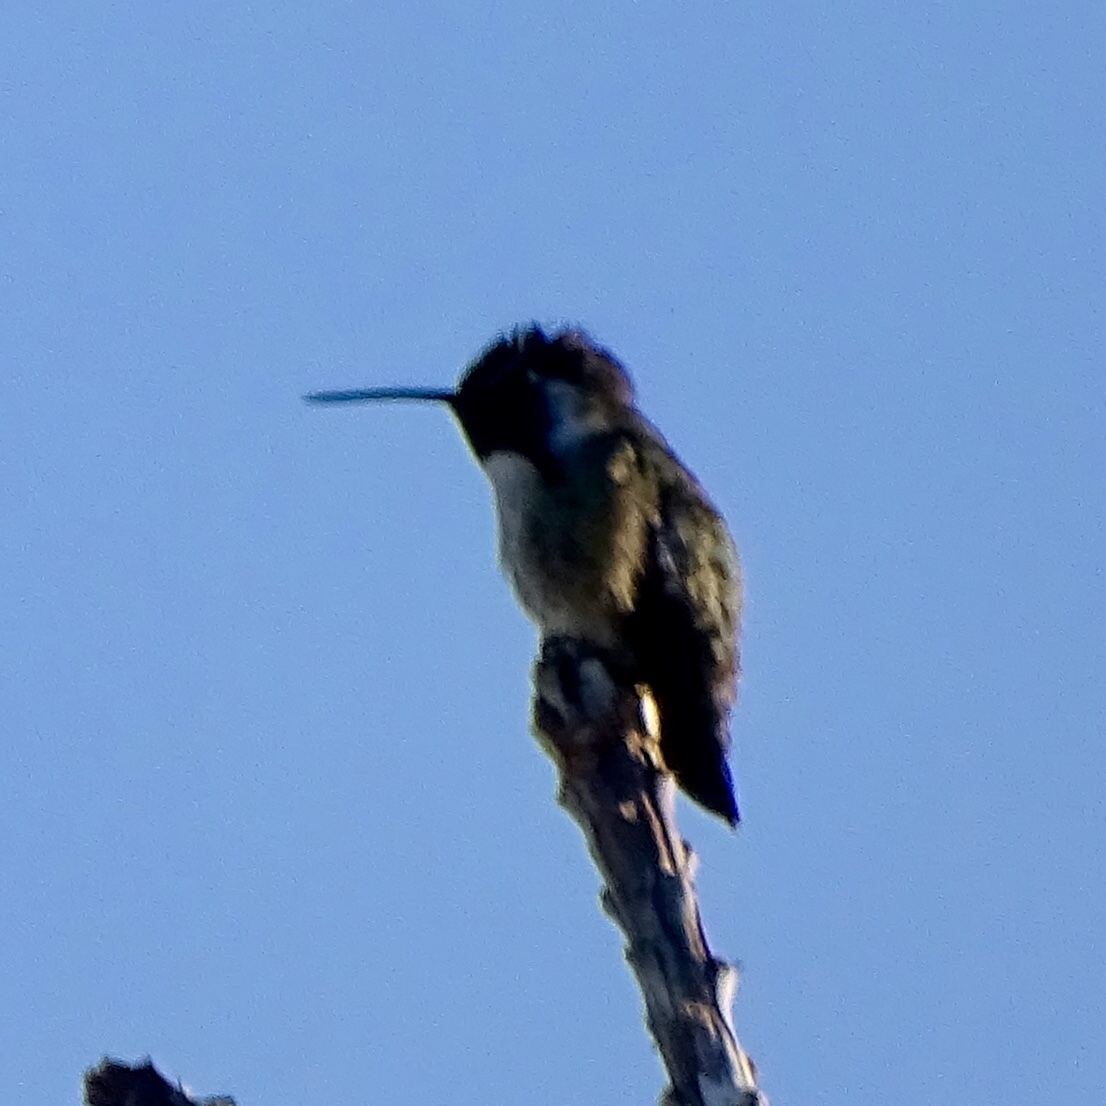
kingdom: Animalia
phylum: Chordata
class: Aves
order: Apodiformes
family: Trochilidae
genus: Calypte
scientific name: Calypte costae
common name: Costa's hummingbird
